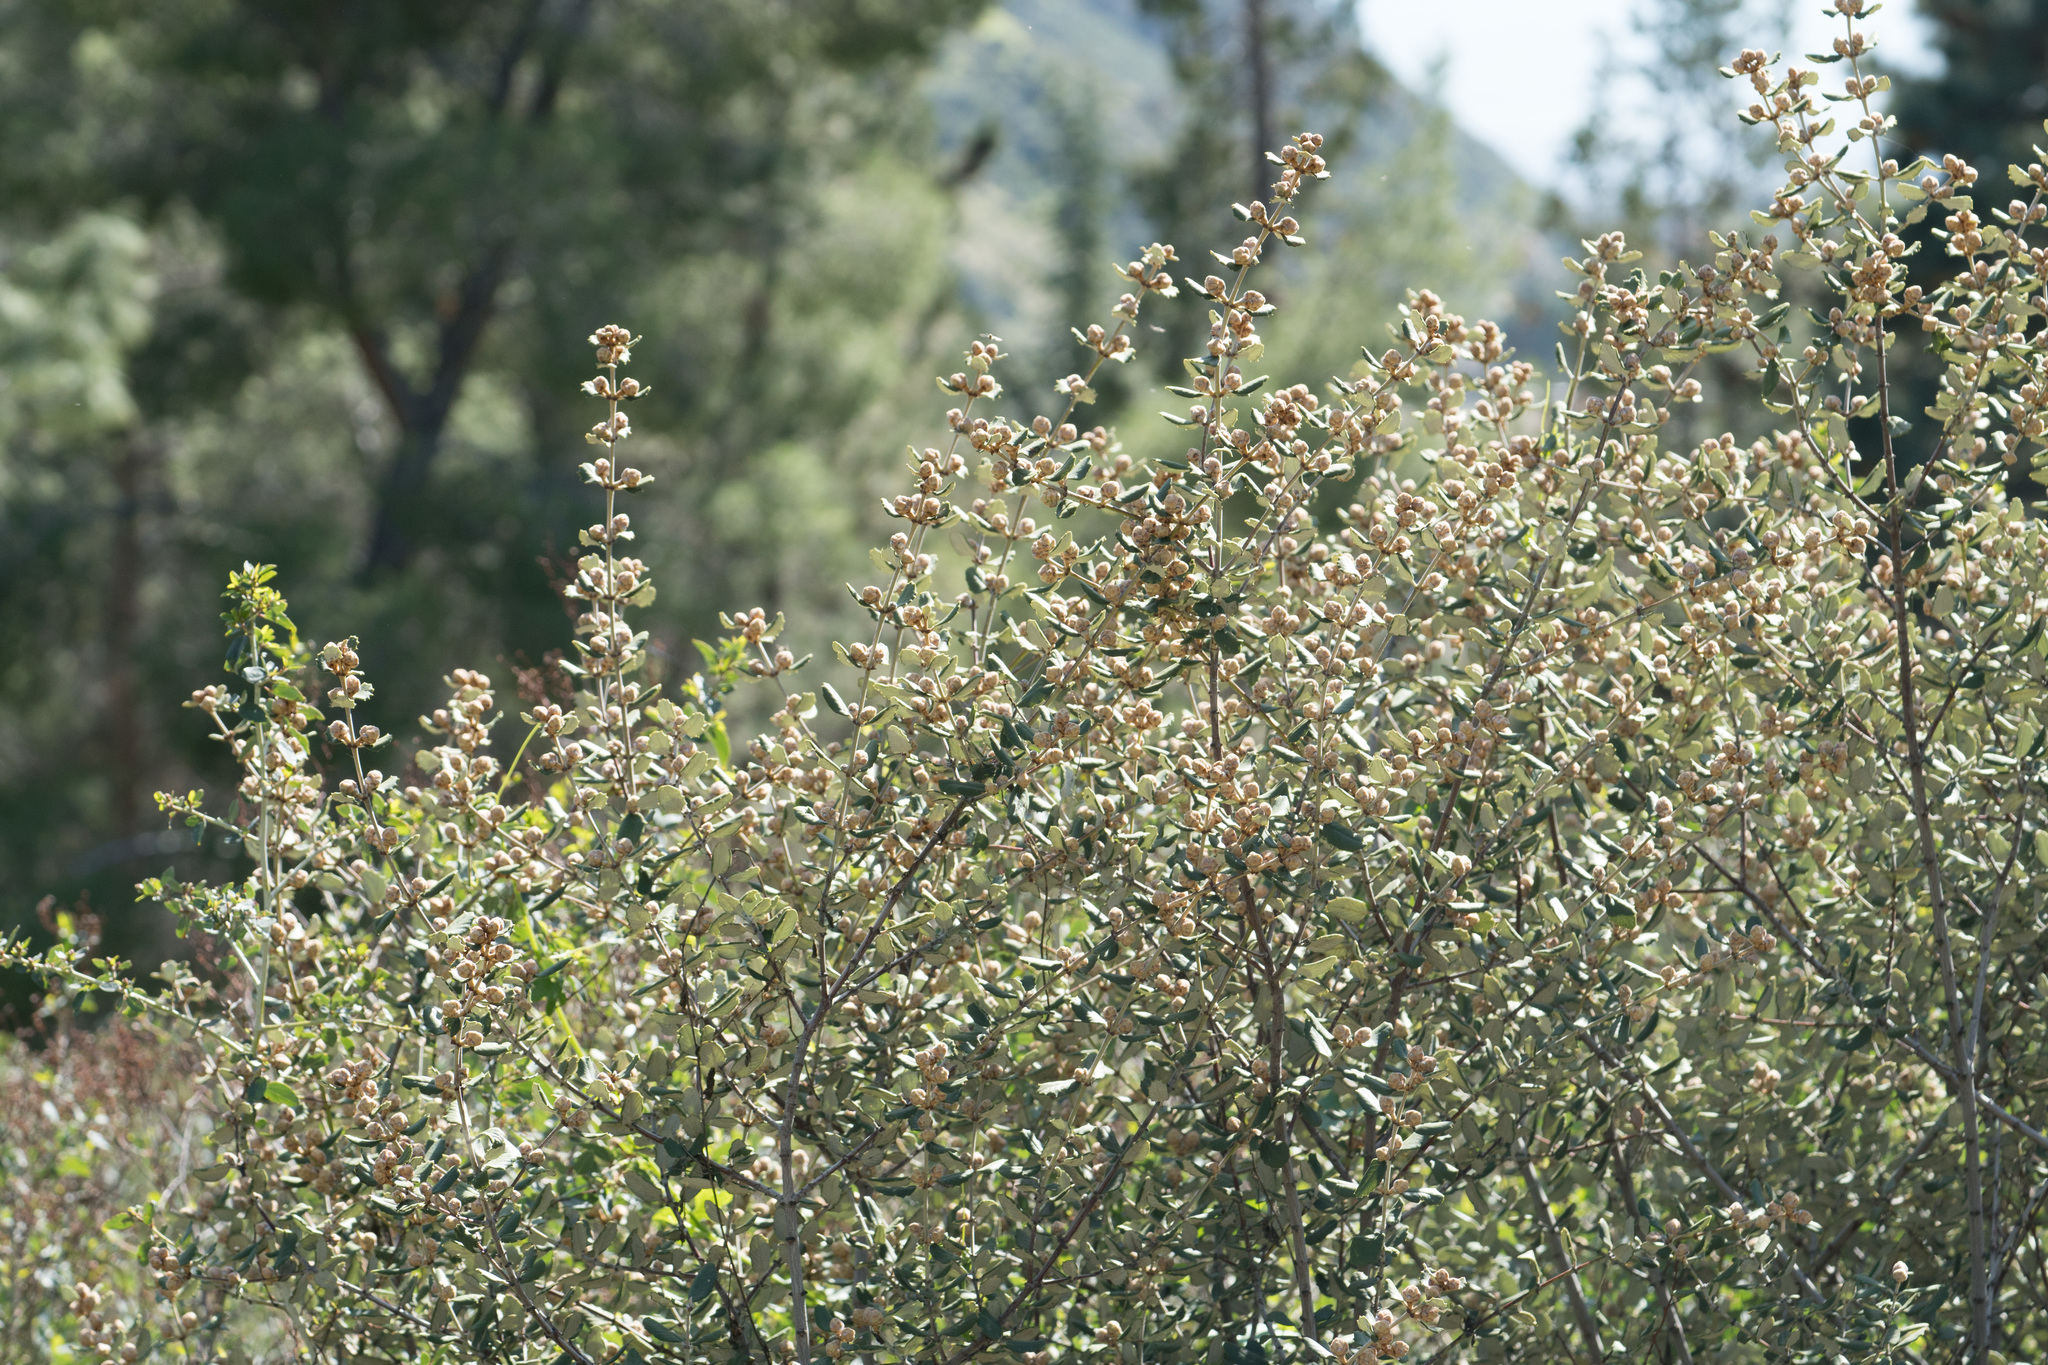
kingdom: Plantae
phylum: Tracheophyta
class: Magnoliopsida
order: Rosales
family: Rhamnaceae
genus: Ceanothus
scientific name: Ceanothus crassifolius
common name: Hoaryleaf ceanothus
